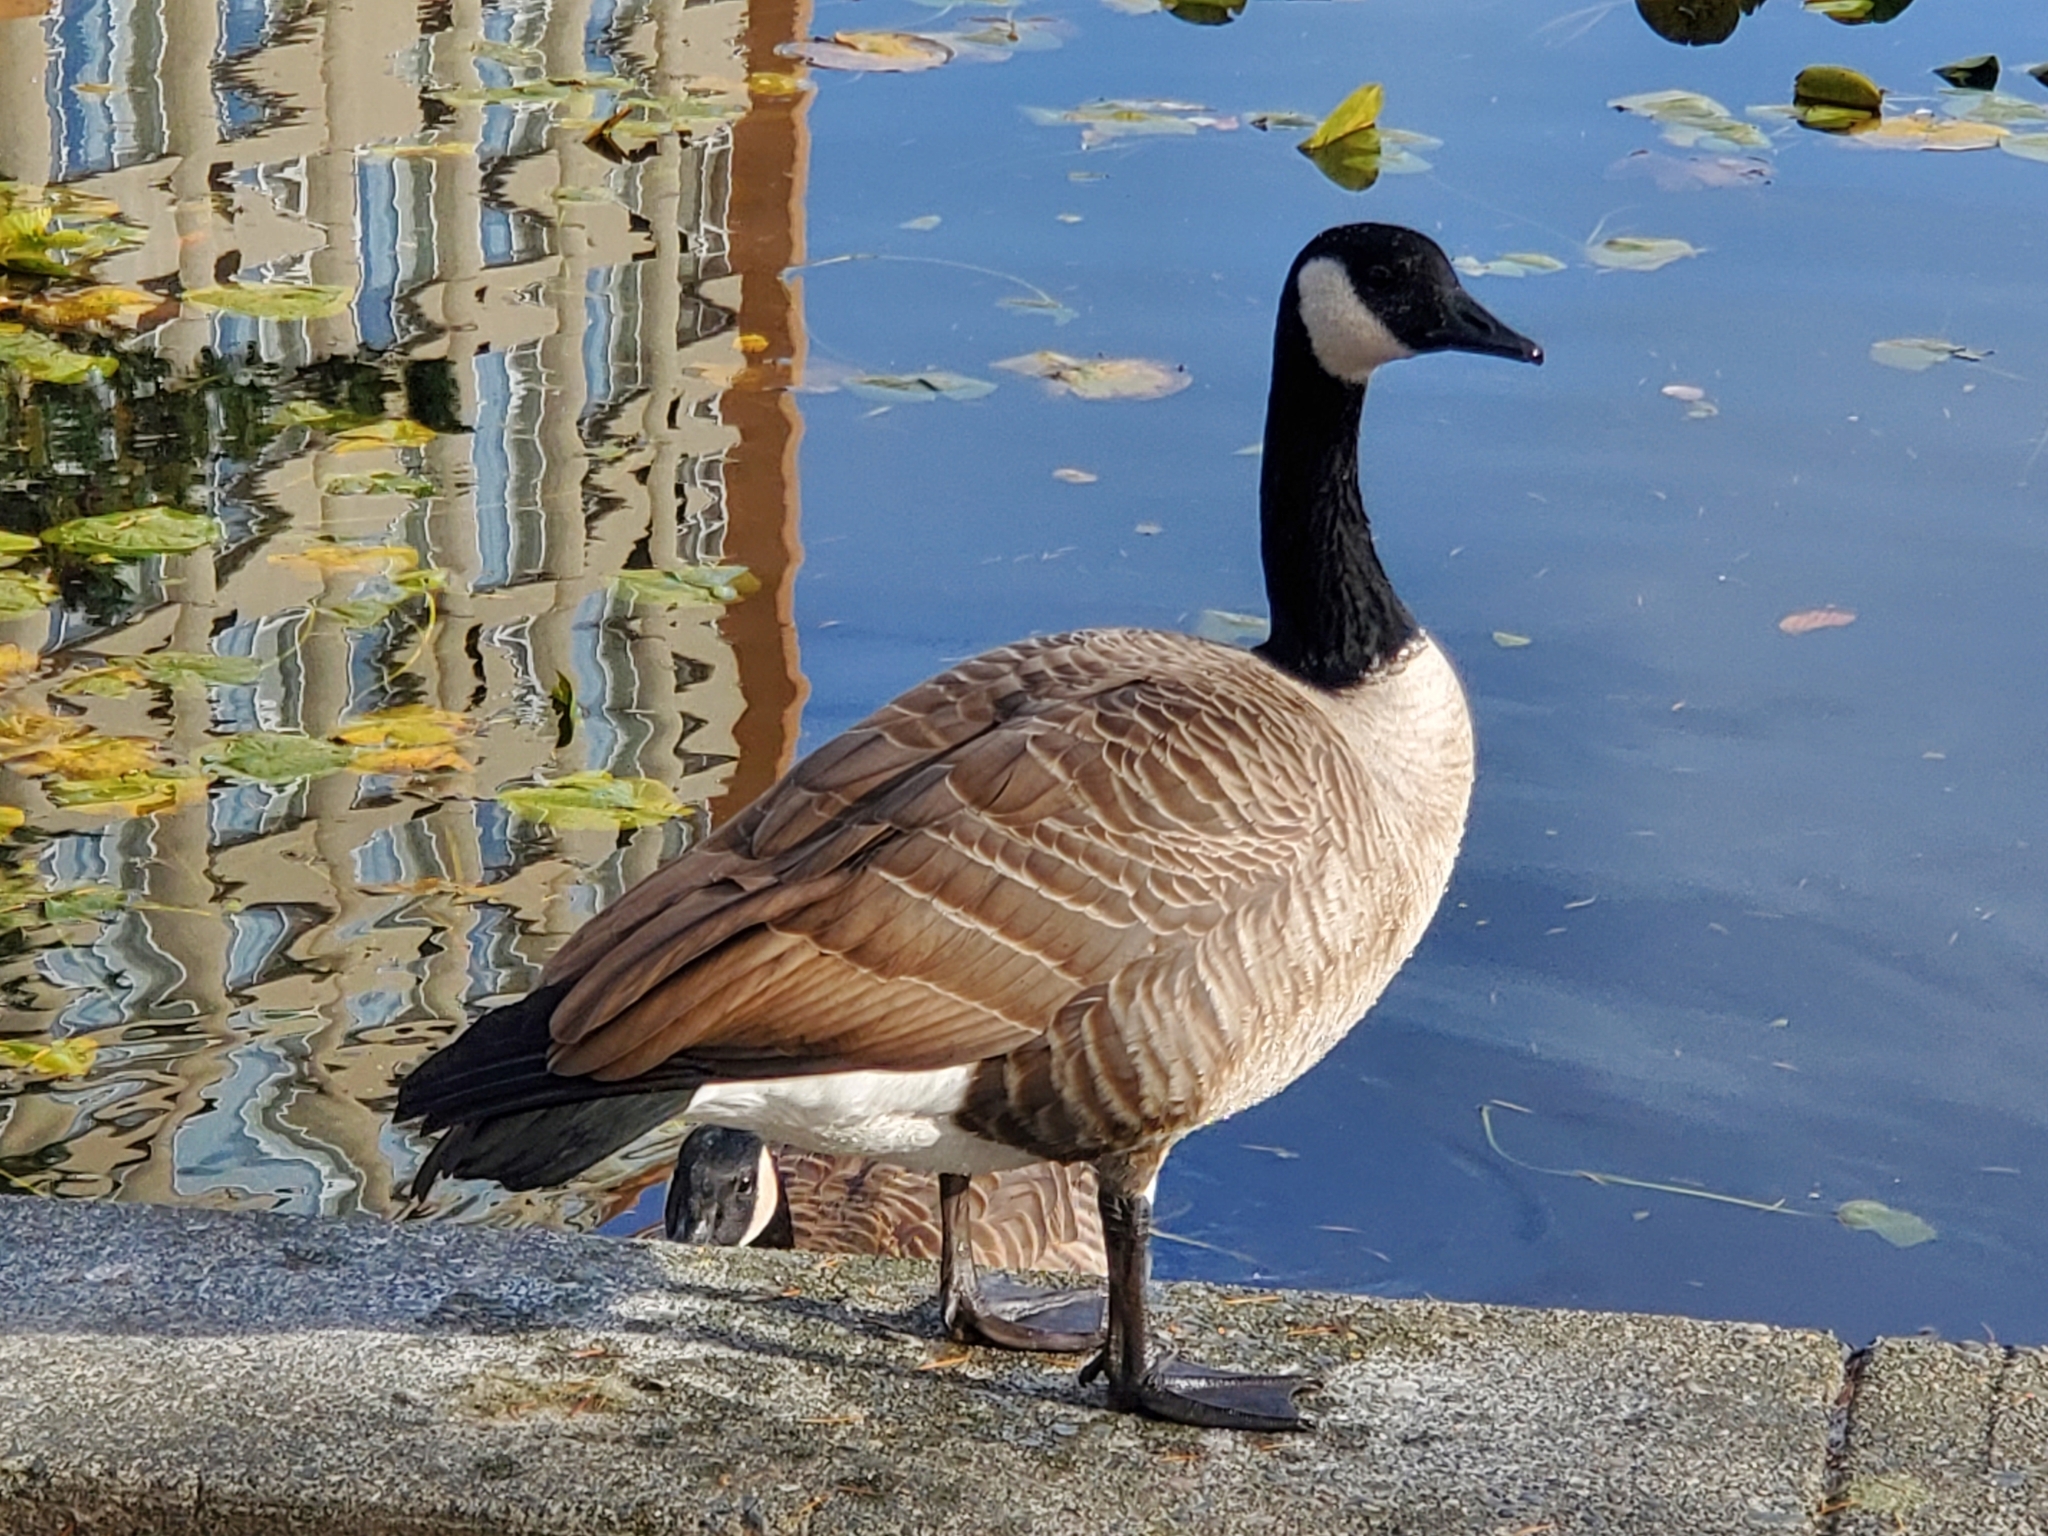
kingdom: Animalia
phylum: Chordata
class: Aves
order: Anseriformes
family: Anatidae
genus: Branta
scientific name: Branta canadensis
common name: Canada goose
